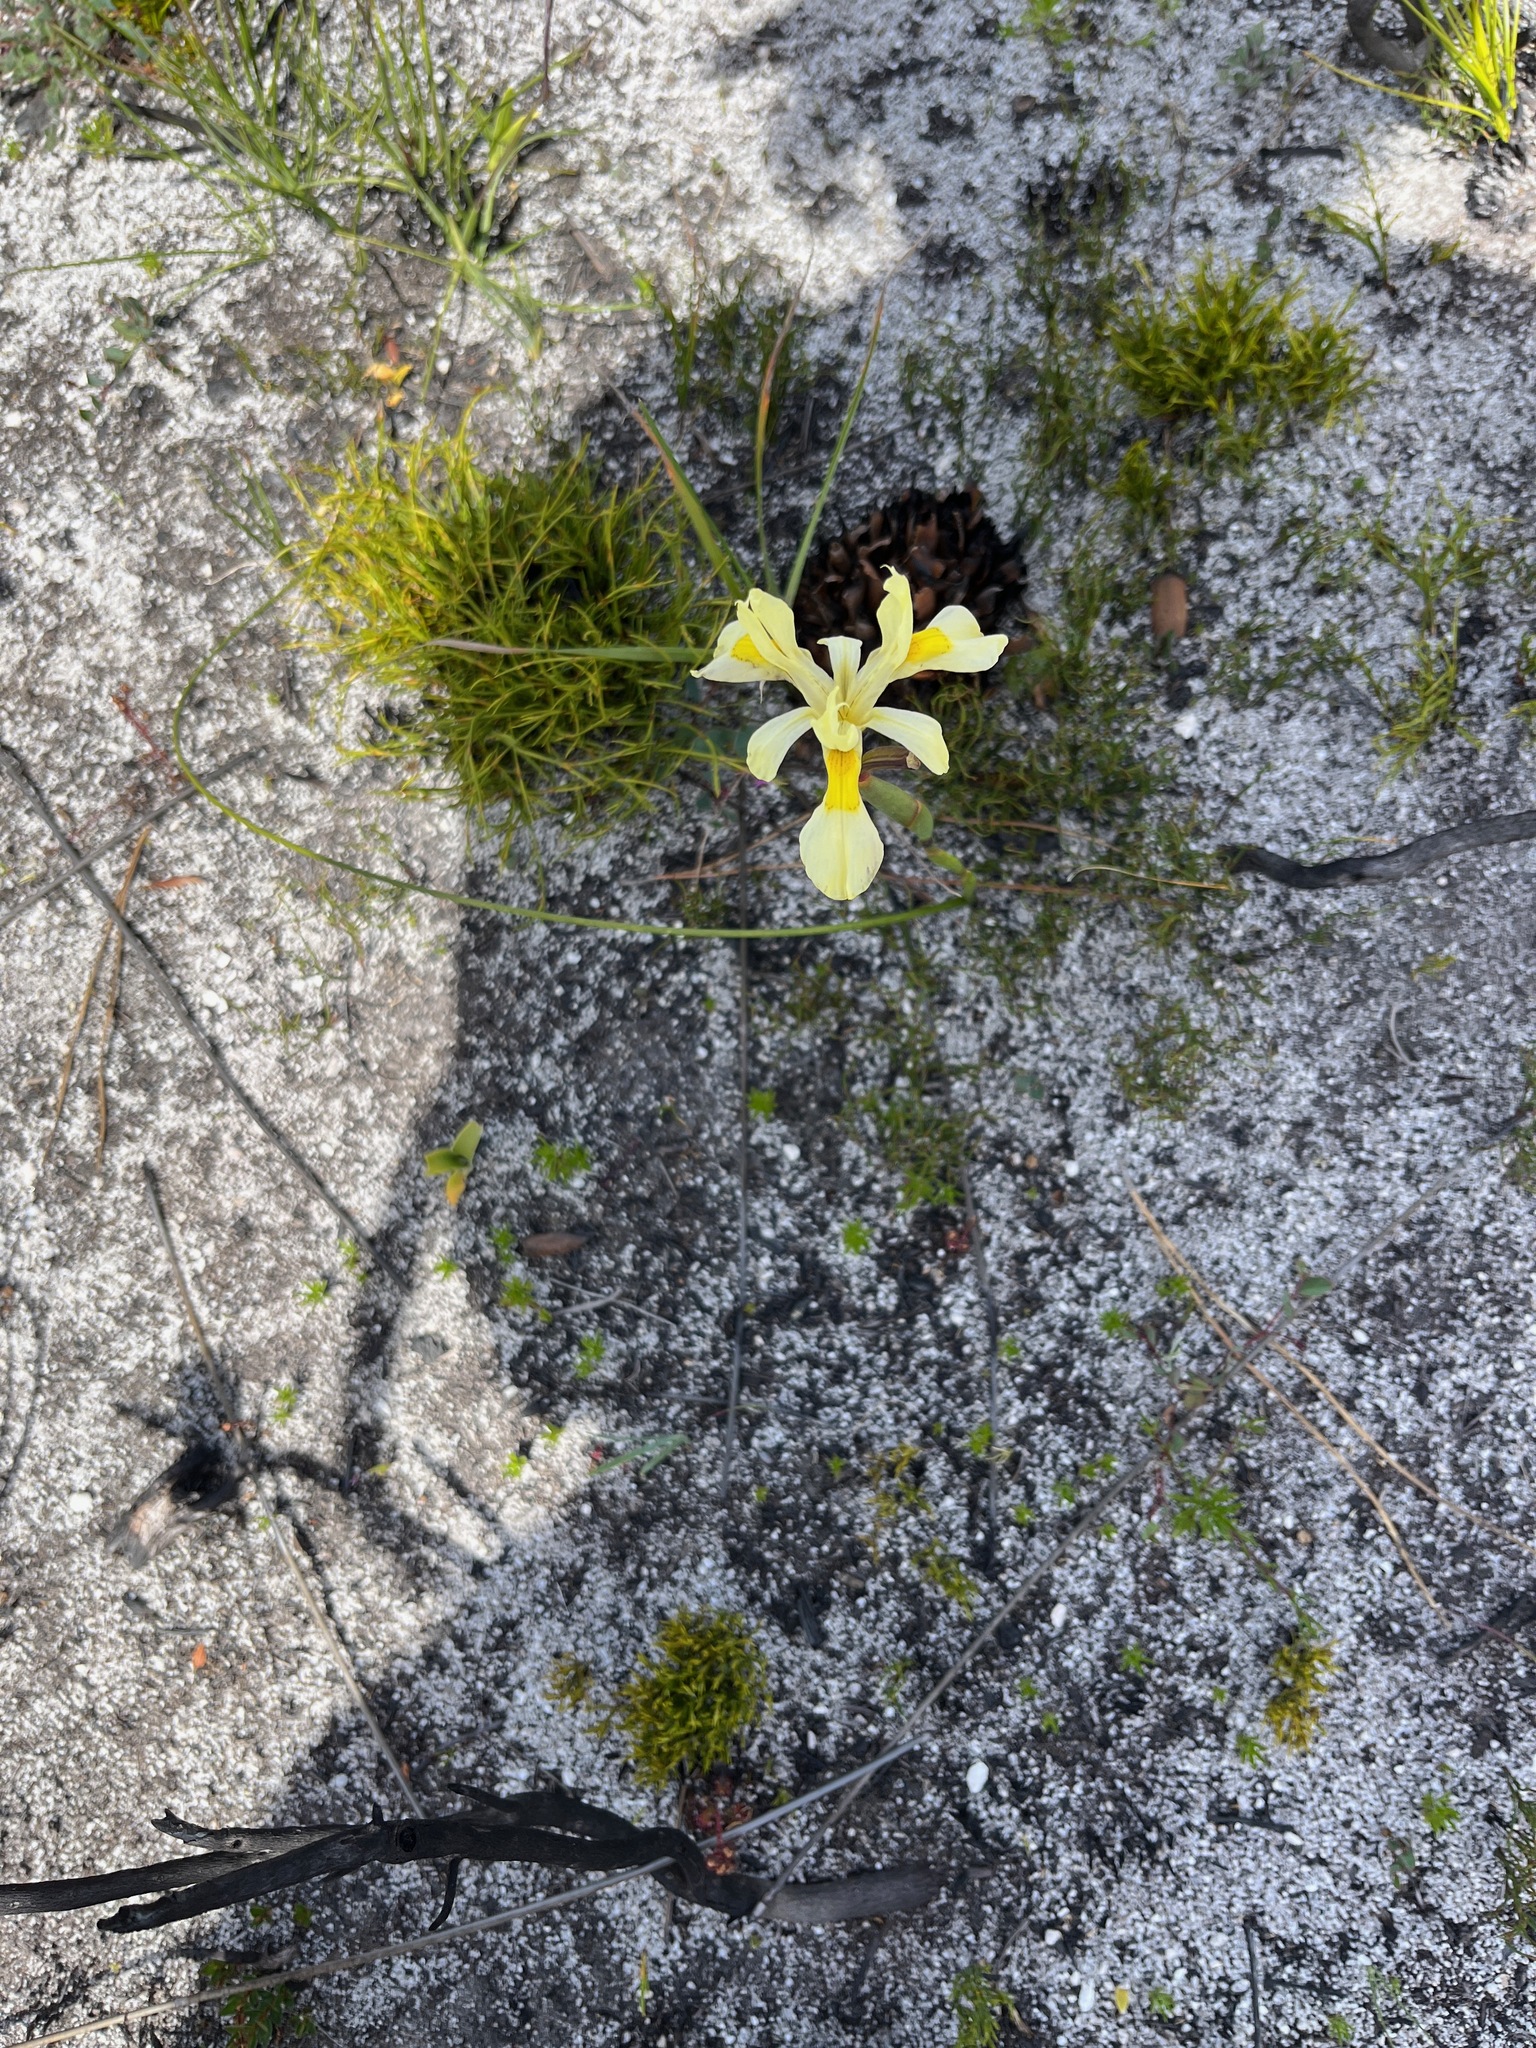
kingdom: Plantae
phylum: Tracheophyta
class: Liliopsida
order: Asparagales
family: Iridaceae
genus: Moraea
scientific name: Moraea anomala
